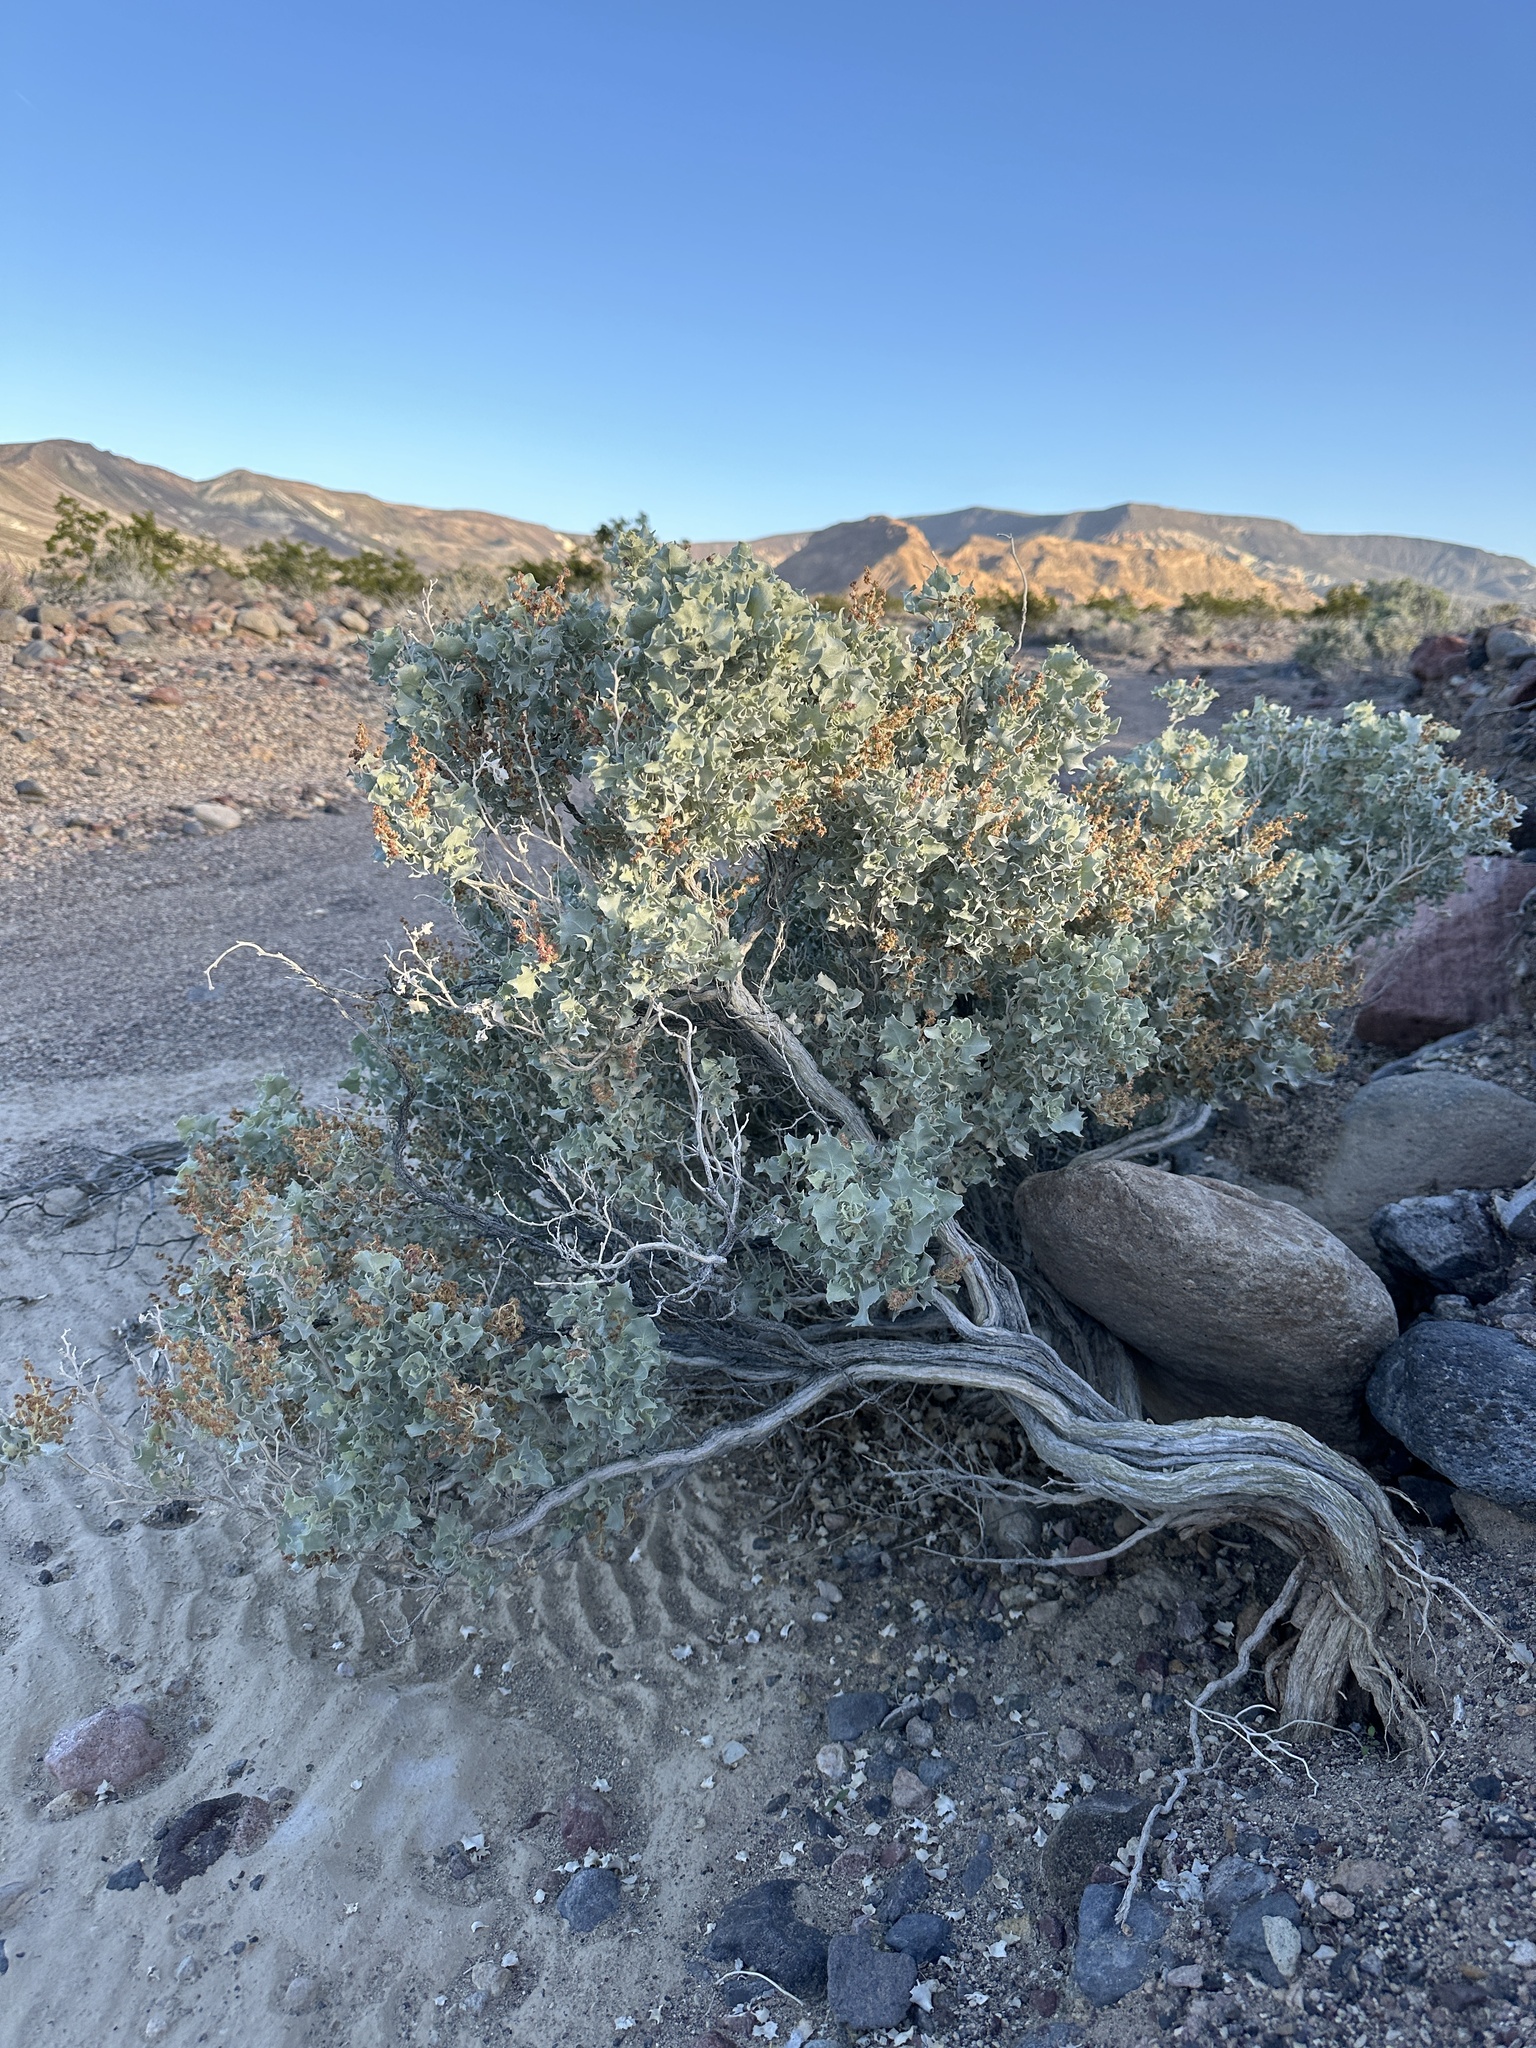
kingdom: Plantae
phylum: Tracheophyta
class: Magnoliopsida
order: Caryophyllales
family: Amaranthaceae
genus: Atriplex
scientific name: Atriplex hymenelytra
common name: Desert-holly
